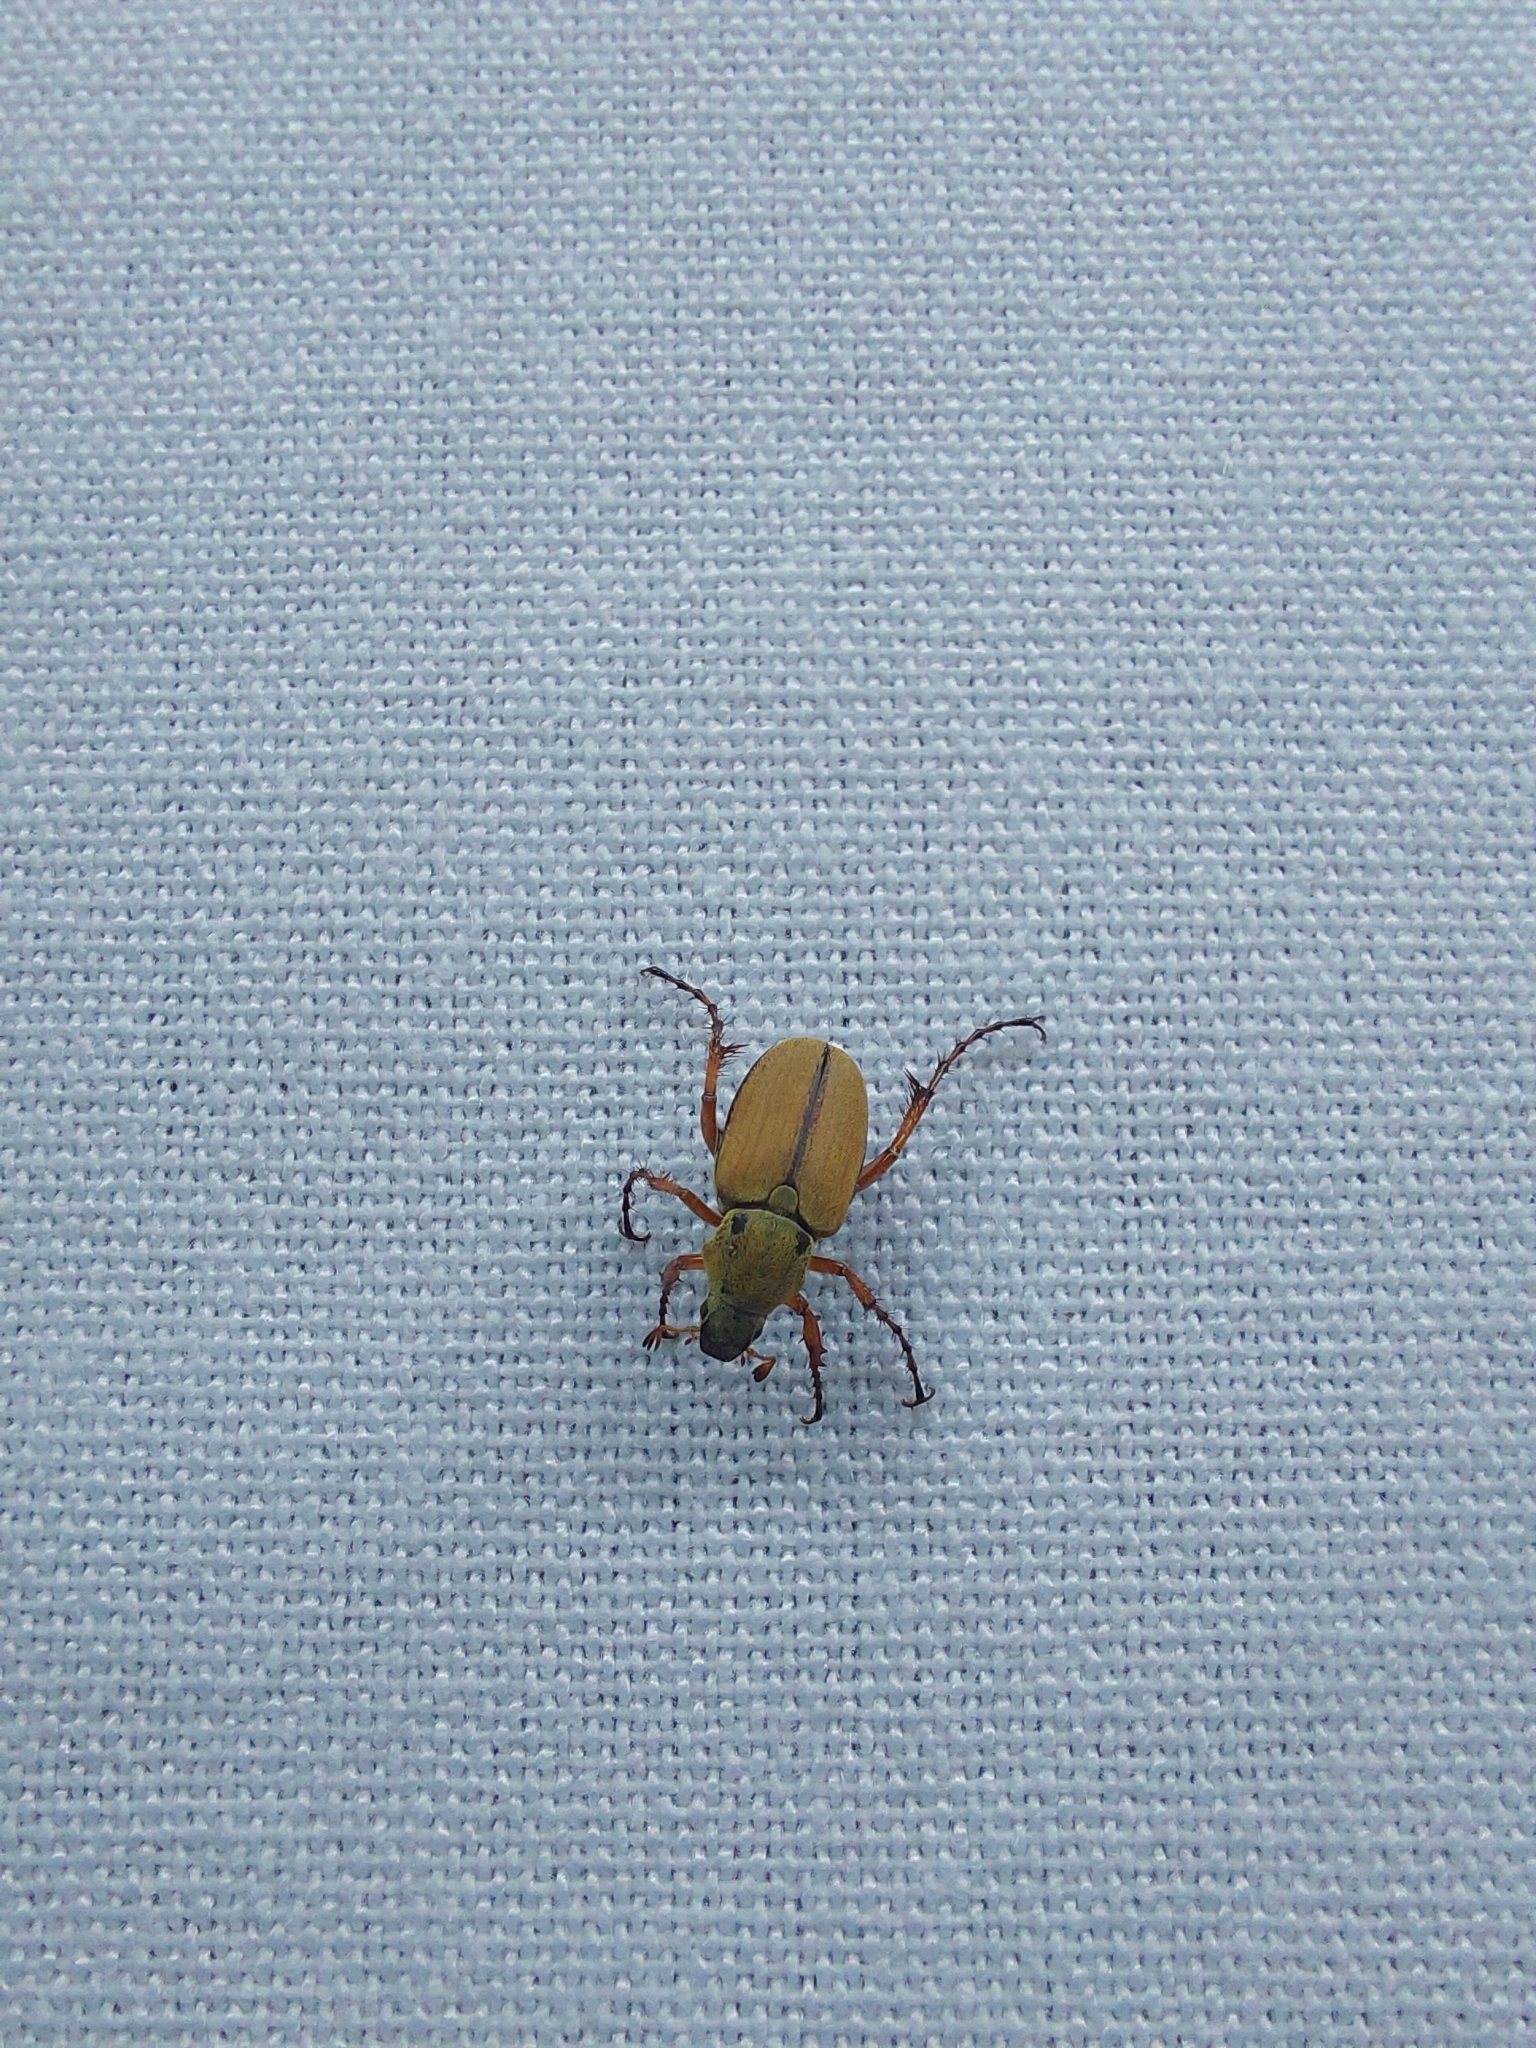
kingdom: Animalia
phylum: Arthropoda
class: Insecta
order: Coleoptera
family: Scarabaeidae
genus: Macrodactylus
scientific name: Macrodactylus subspinosus
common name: American rose chafer
